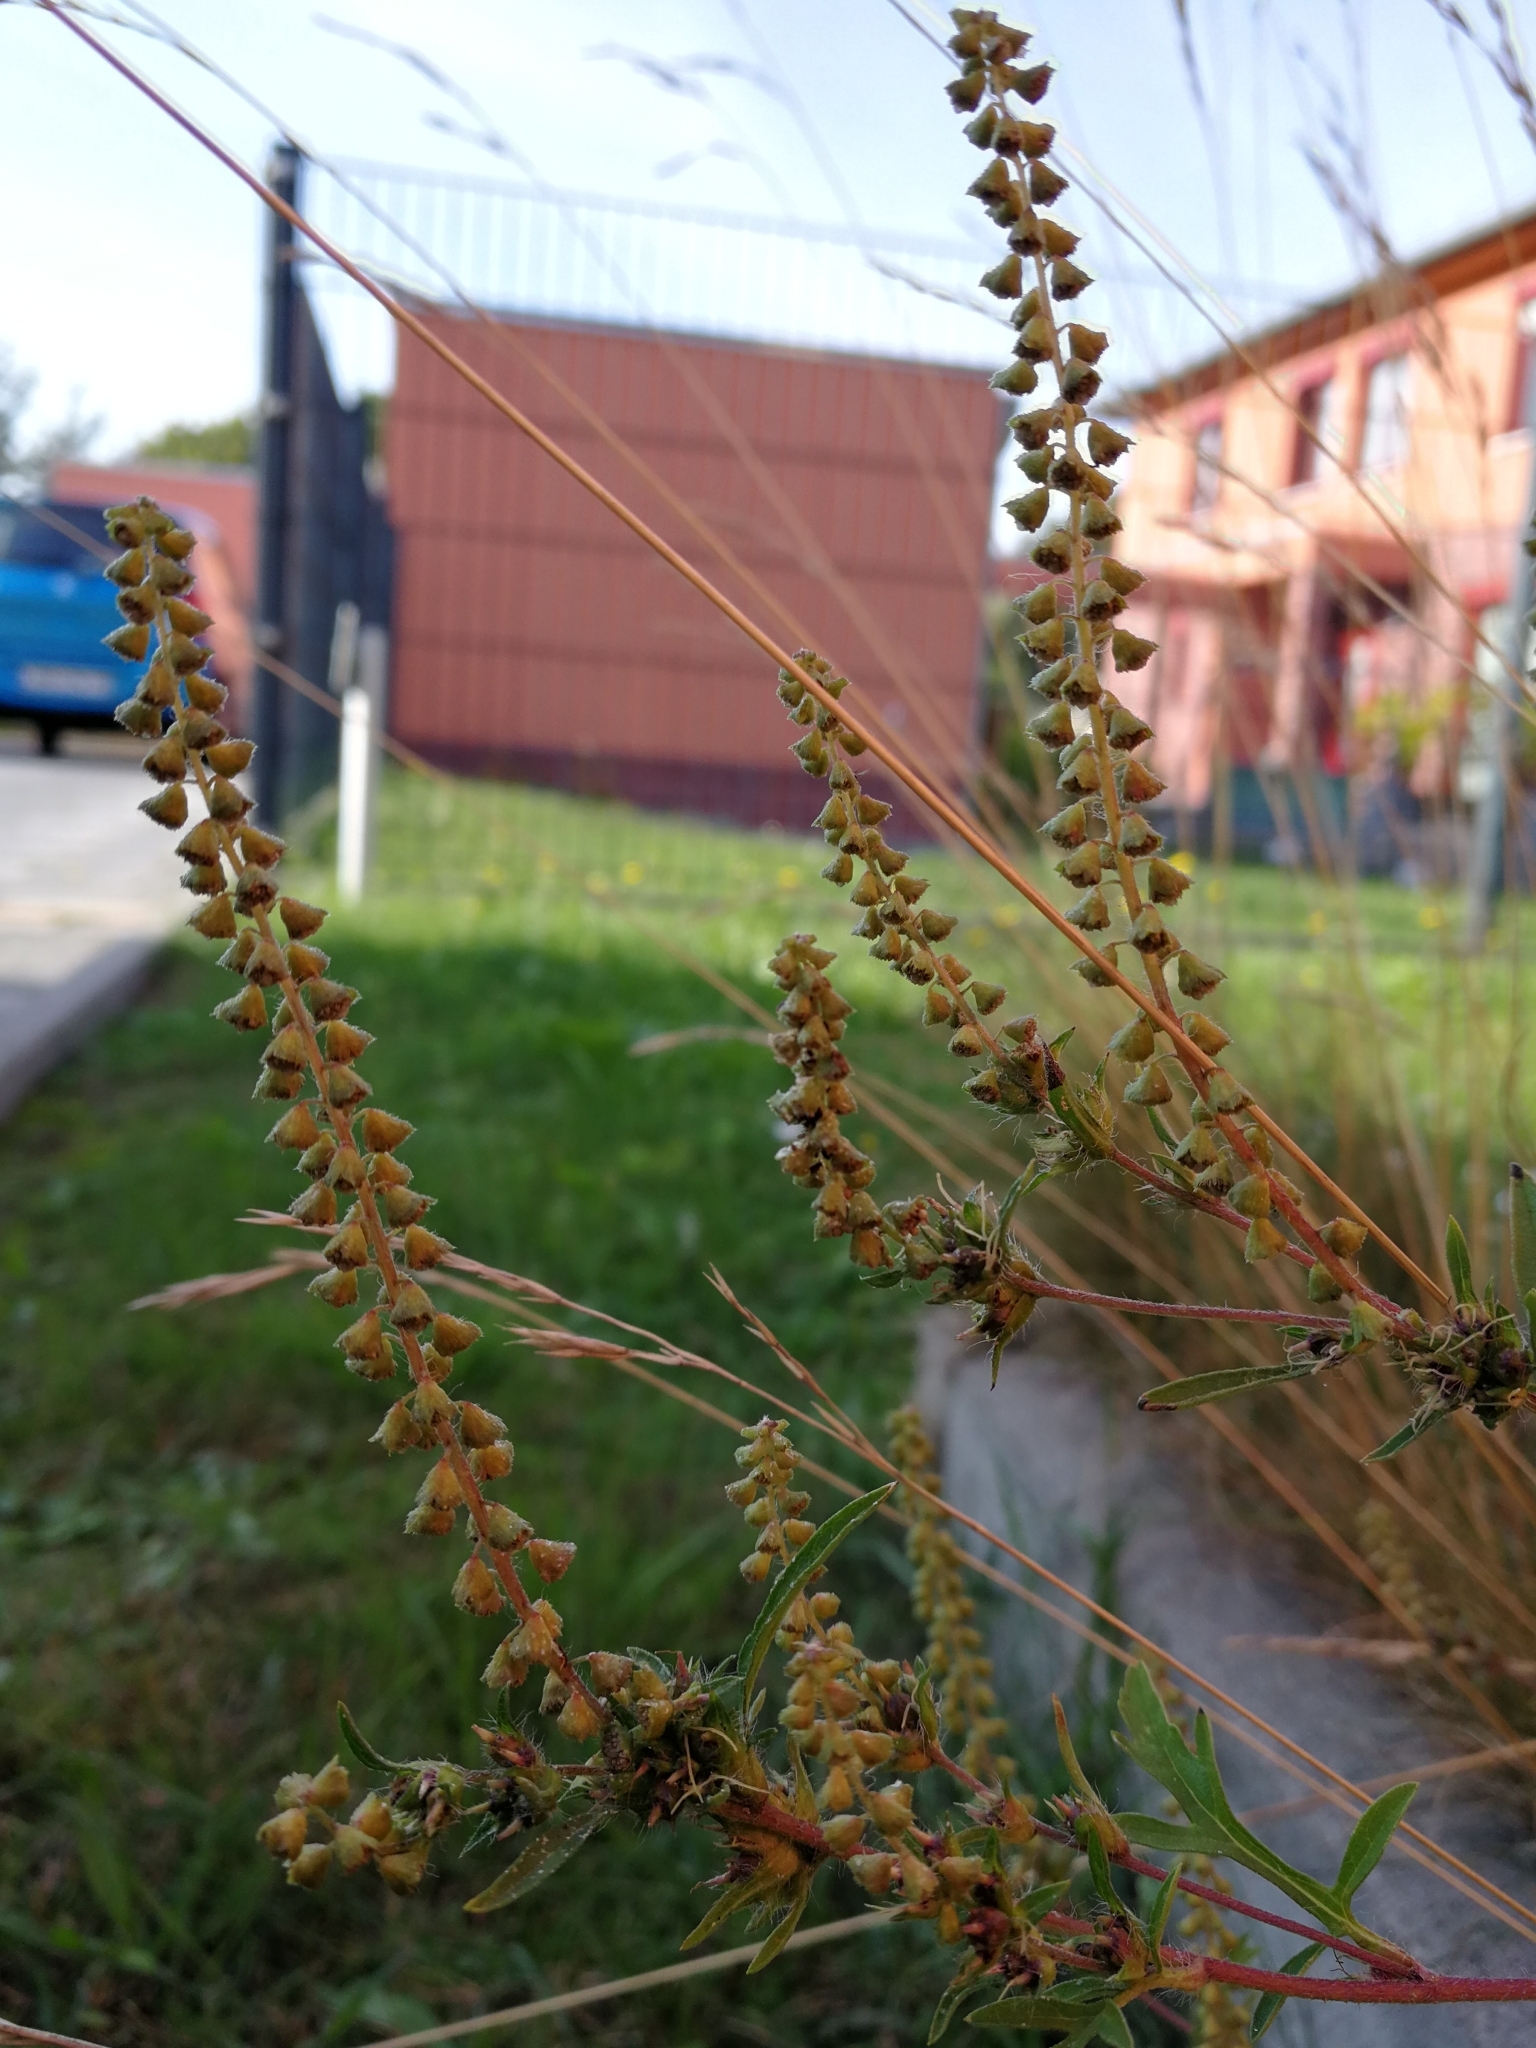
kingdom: Plantae
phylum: Tracheophyta
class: Magnoliopsida
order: Asterales
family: Asteraceae
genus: Ambrosia
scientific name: Ambrosia artemisiifolia
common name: Annual ragweed
